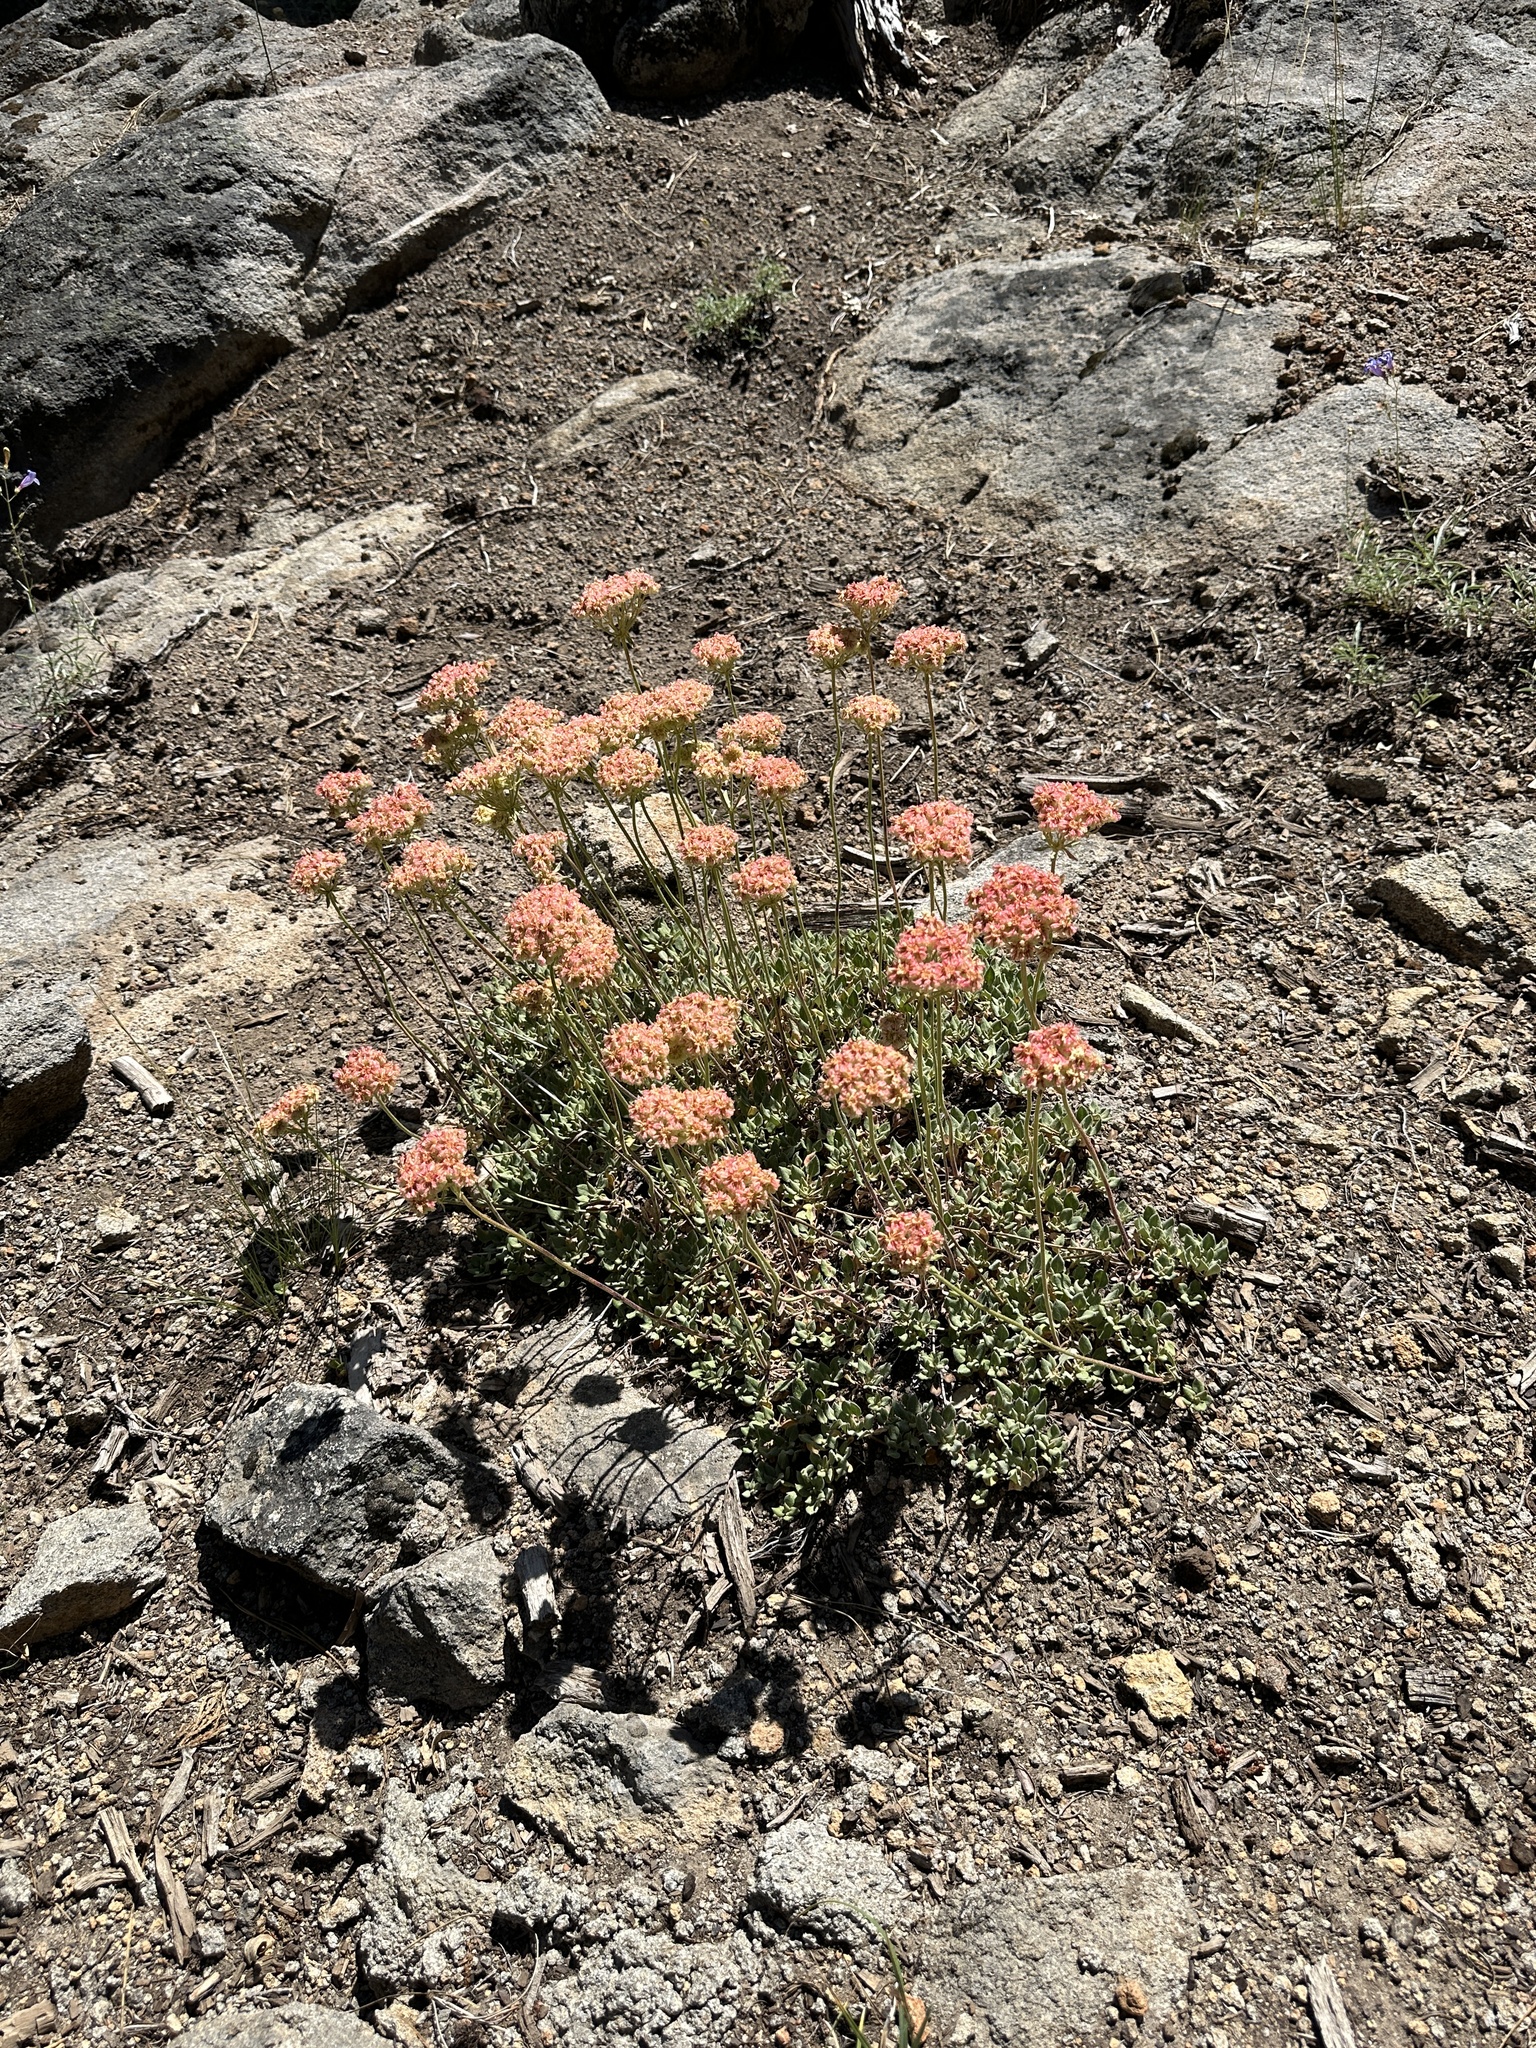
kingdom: Plantae
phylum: Tracheophyta
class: Magnoliopsida
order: Caryophyllales
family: Polygonaceae
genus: Eriogonum
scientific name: Eriogonum ursinum
